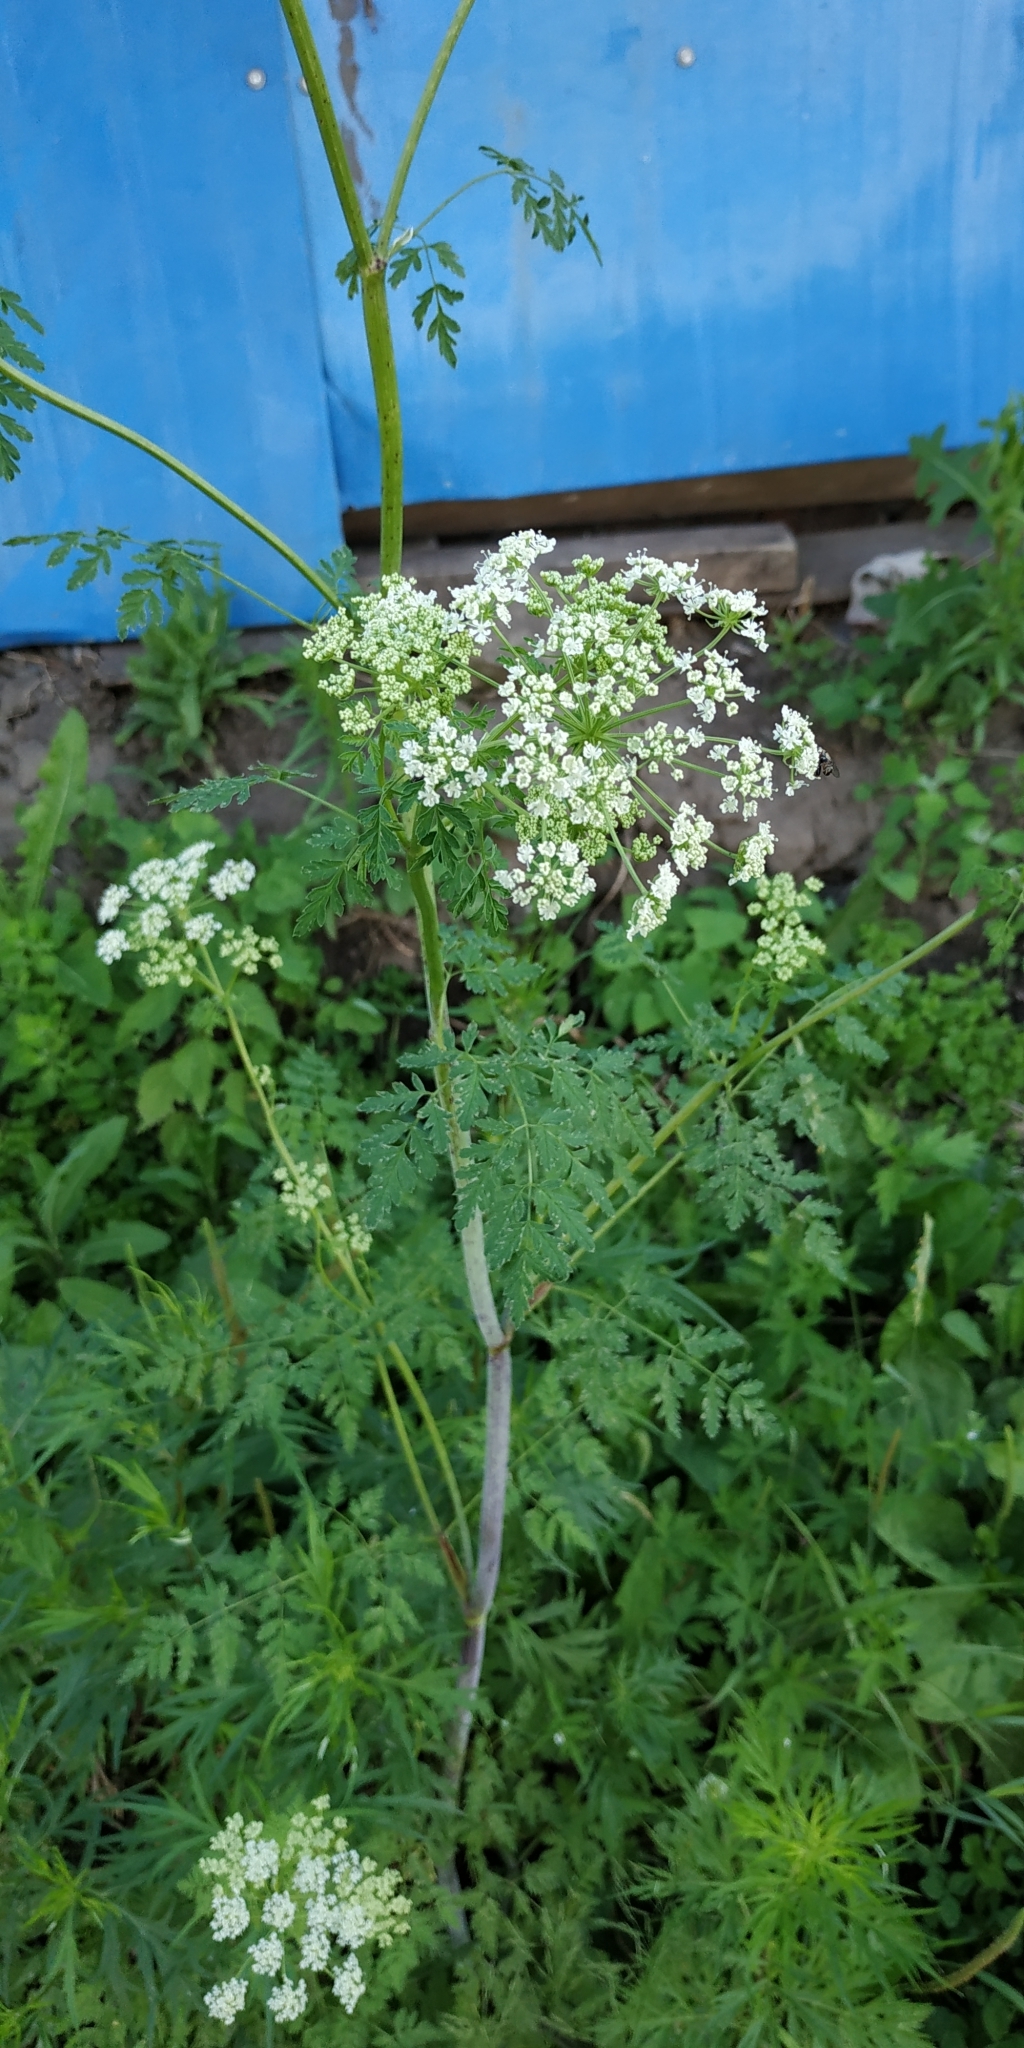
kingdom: Plantae
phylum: Tracheophyta
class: Magnoliopsida
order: Apiales
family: Apiaceae
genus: Conium
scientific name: Conium maculatum
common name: Hemlock
